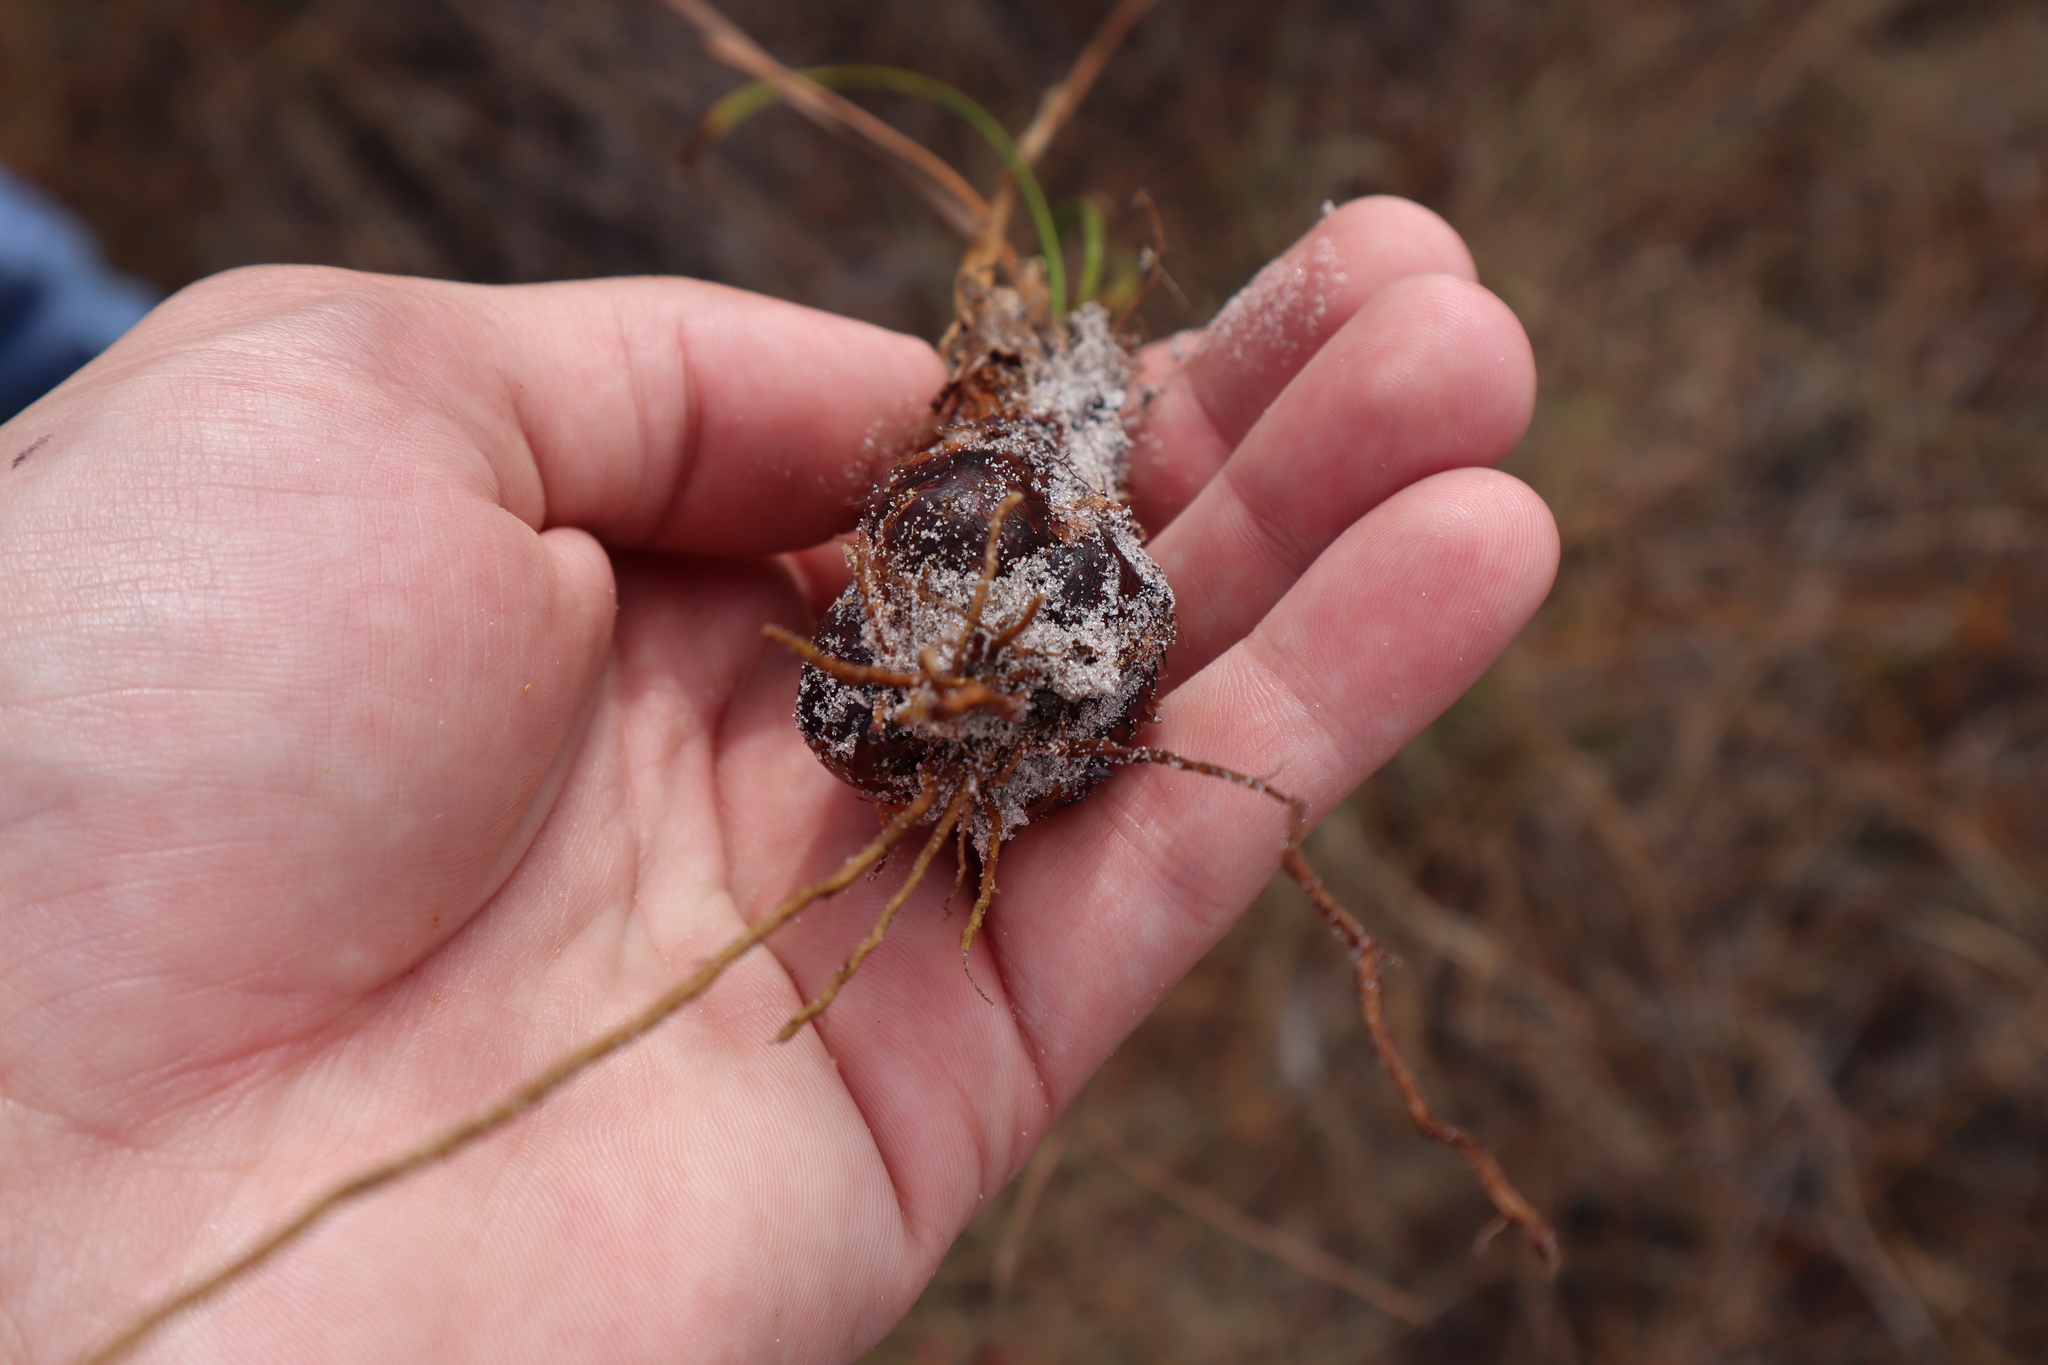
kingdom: Plantae
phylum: Tracheophyta
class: Liliopsida
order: Poales
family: Xyridaceae
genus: Xyris
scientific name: Xyris caroliniana
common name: Carolina yellow-eyed-grass
